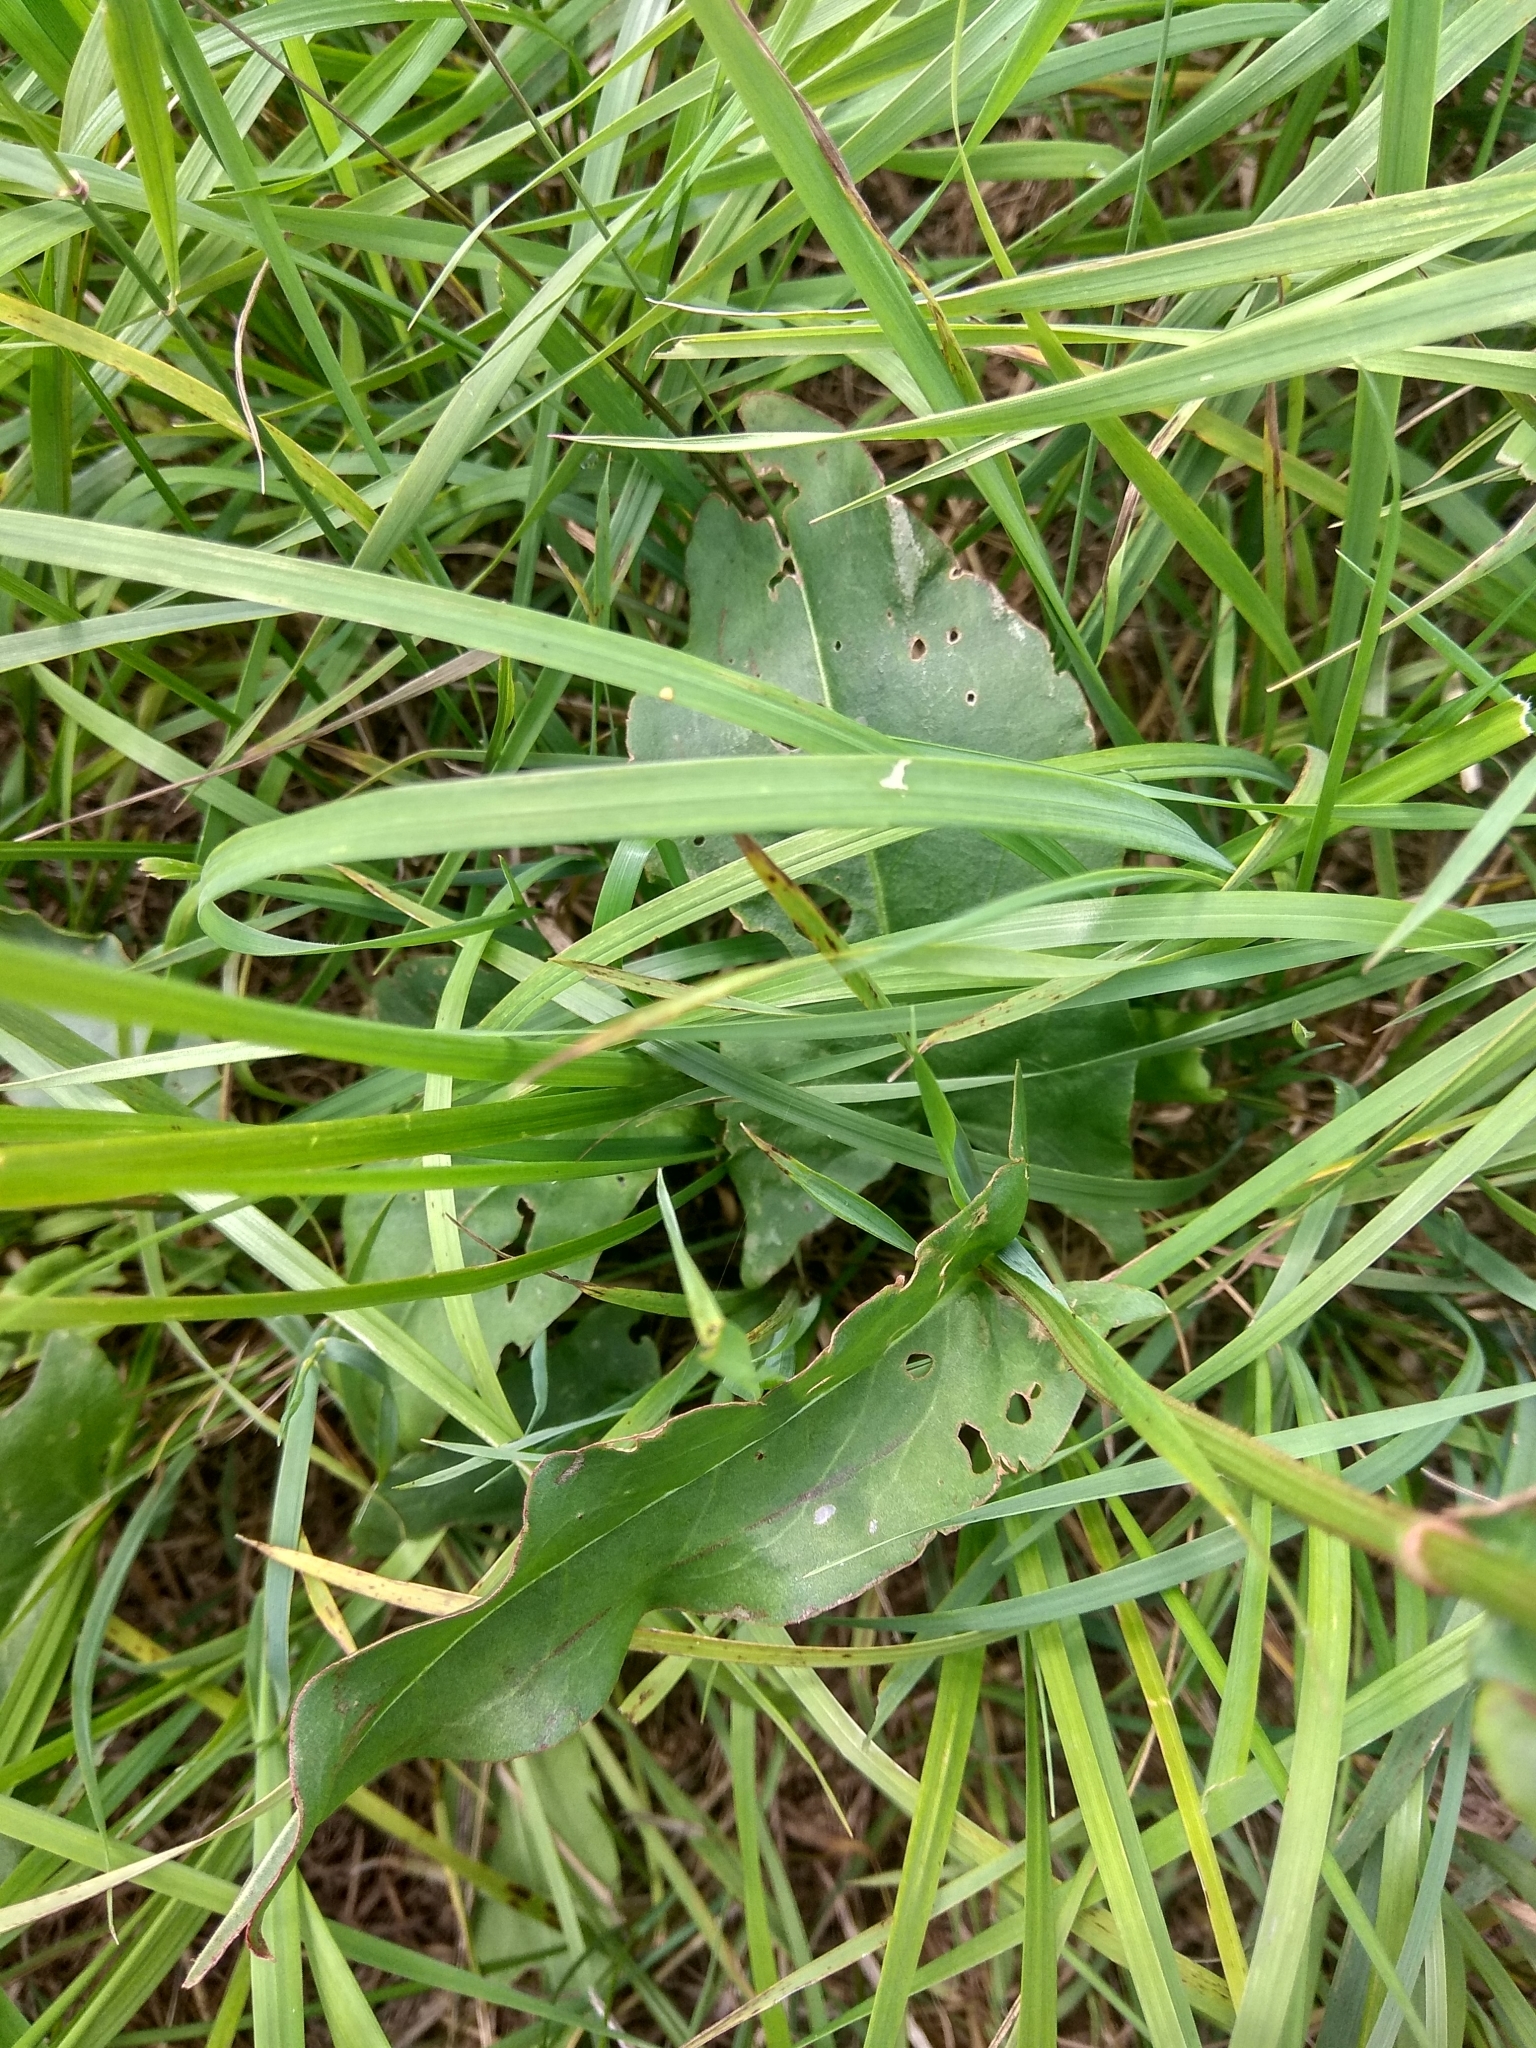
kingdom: Plantae
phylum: Tracheophyta
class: Magnoliopsida
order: Caryophyllales
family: Polygonaceae
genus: Rumex
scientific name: Rumex thyrsiflorus
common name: Garden sorrel
